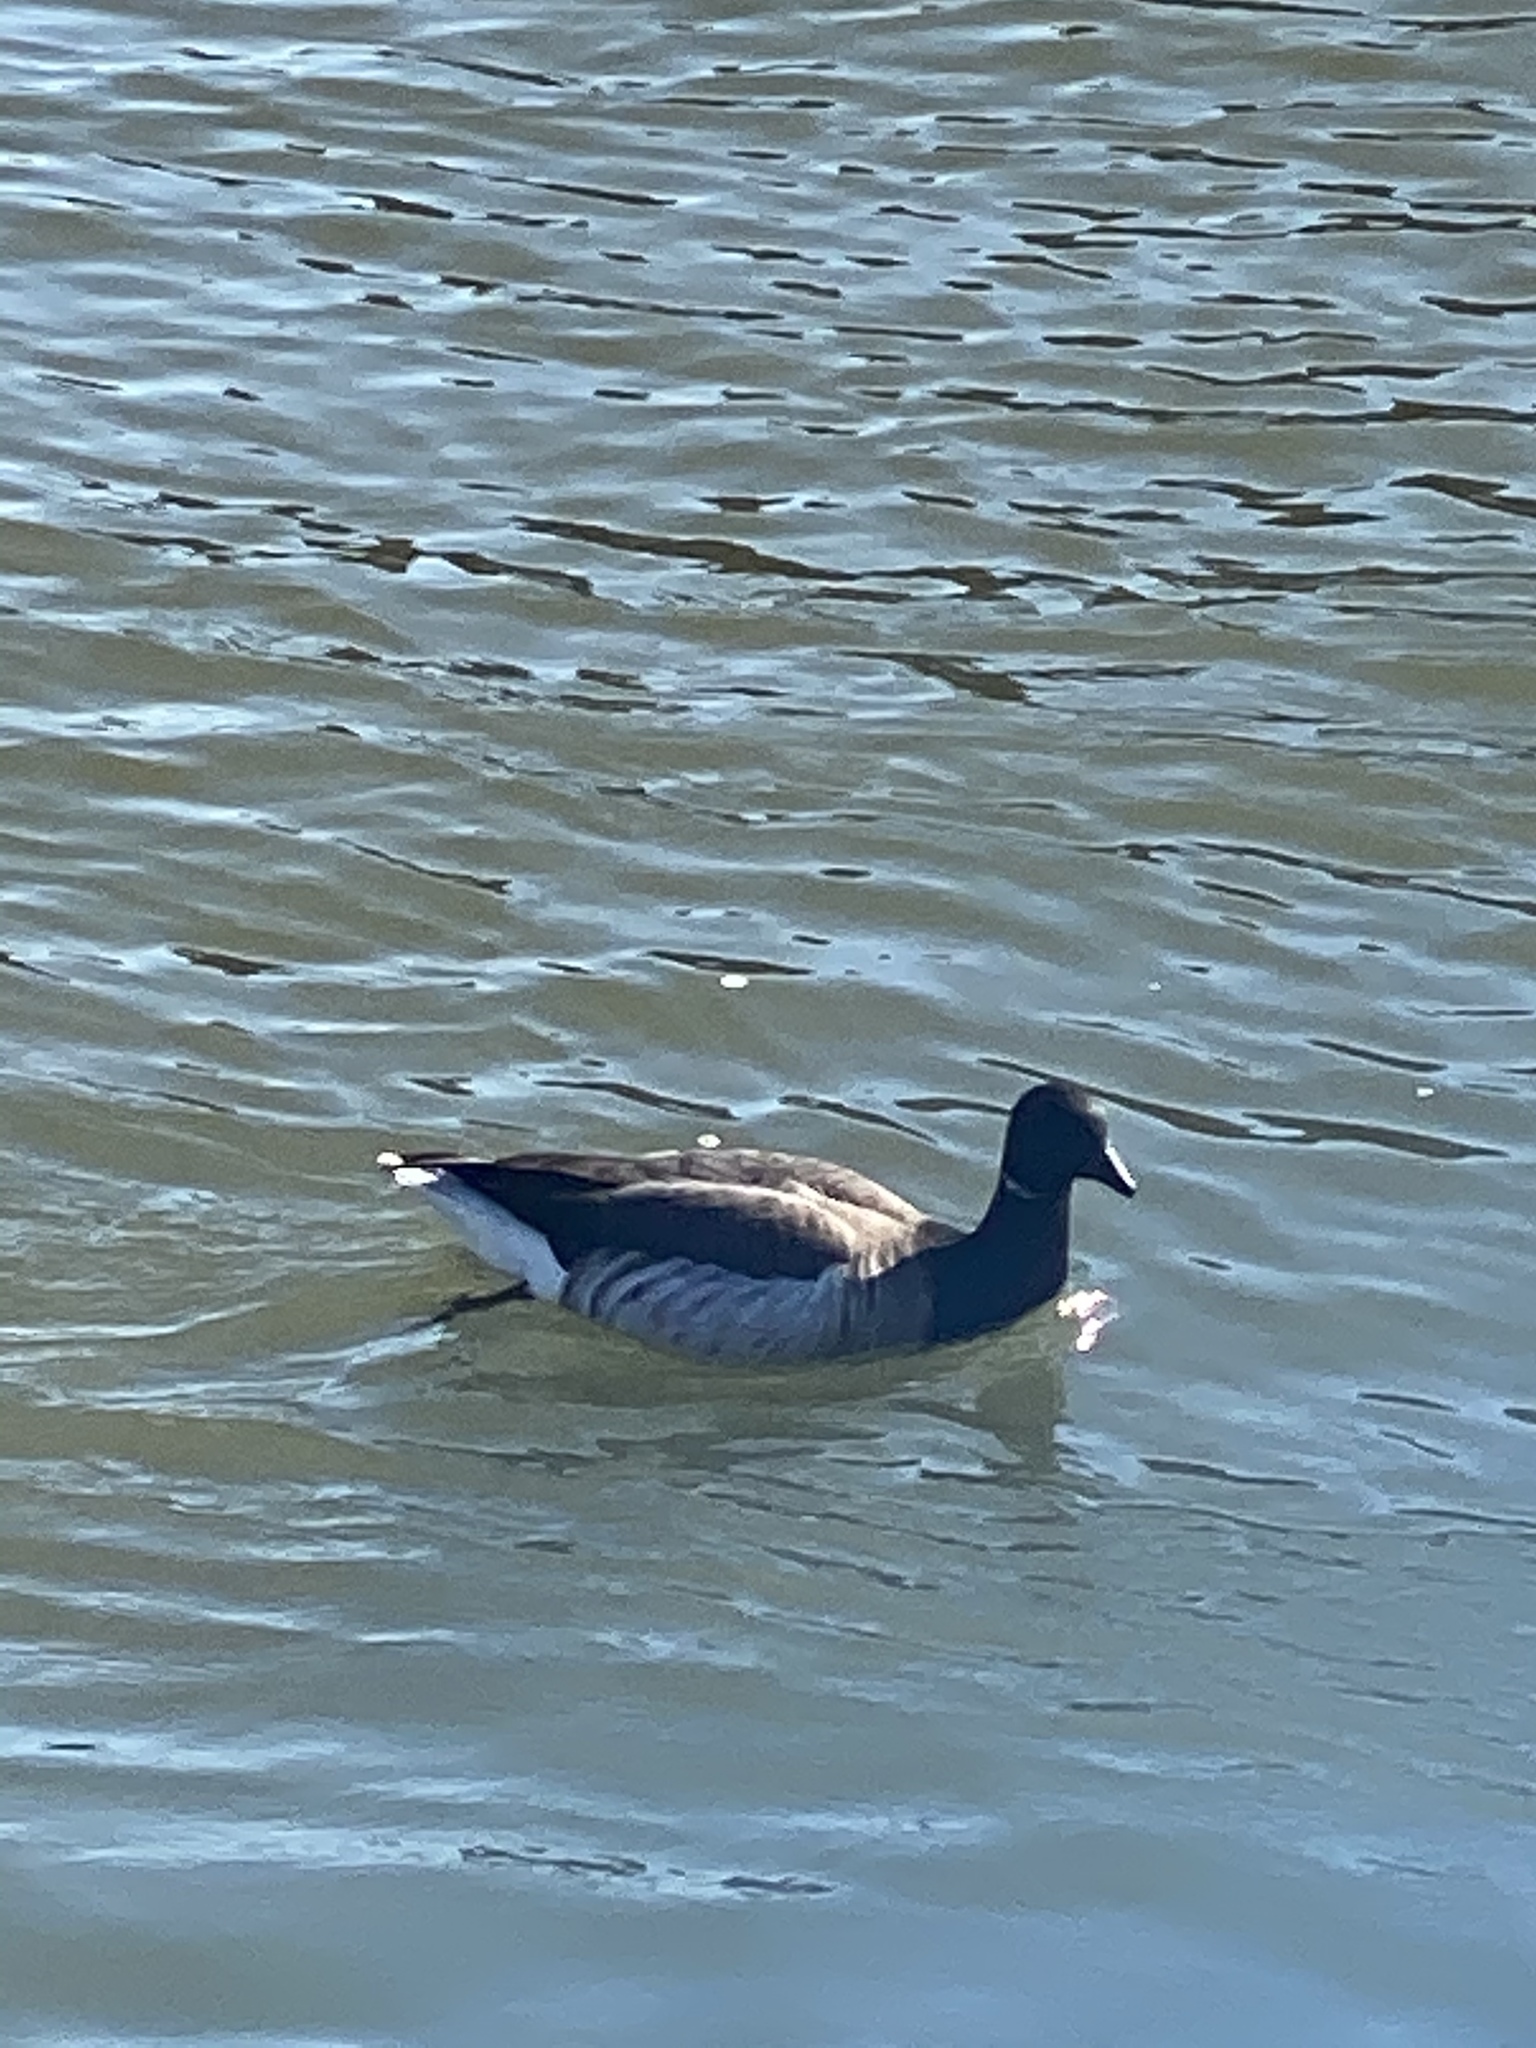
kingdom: Animalia
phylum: Chordata
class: Aves
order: Anseriformes
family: Anatidae
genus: Branta
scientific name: Branta bernicla
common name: Brant goose
